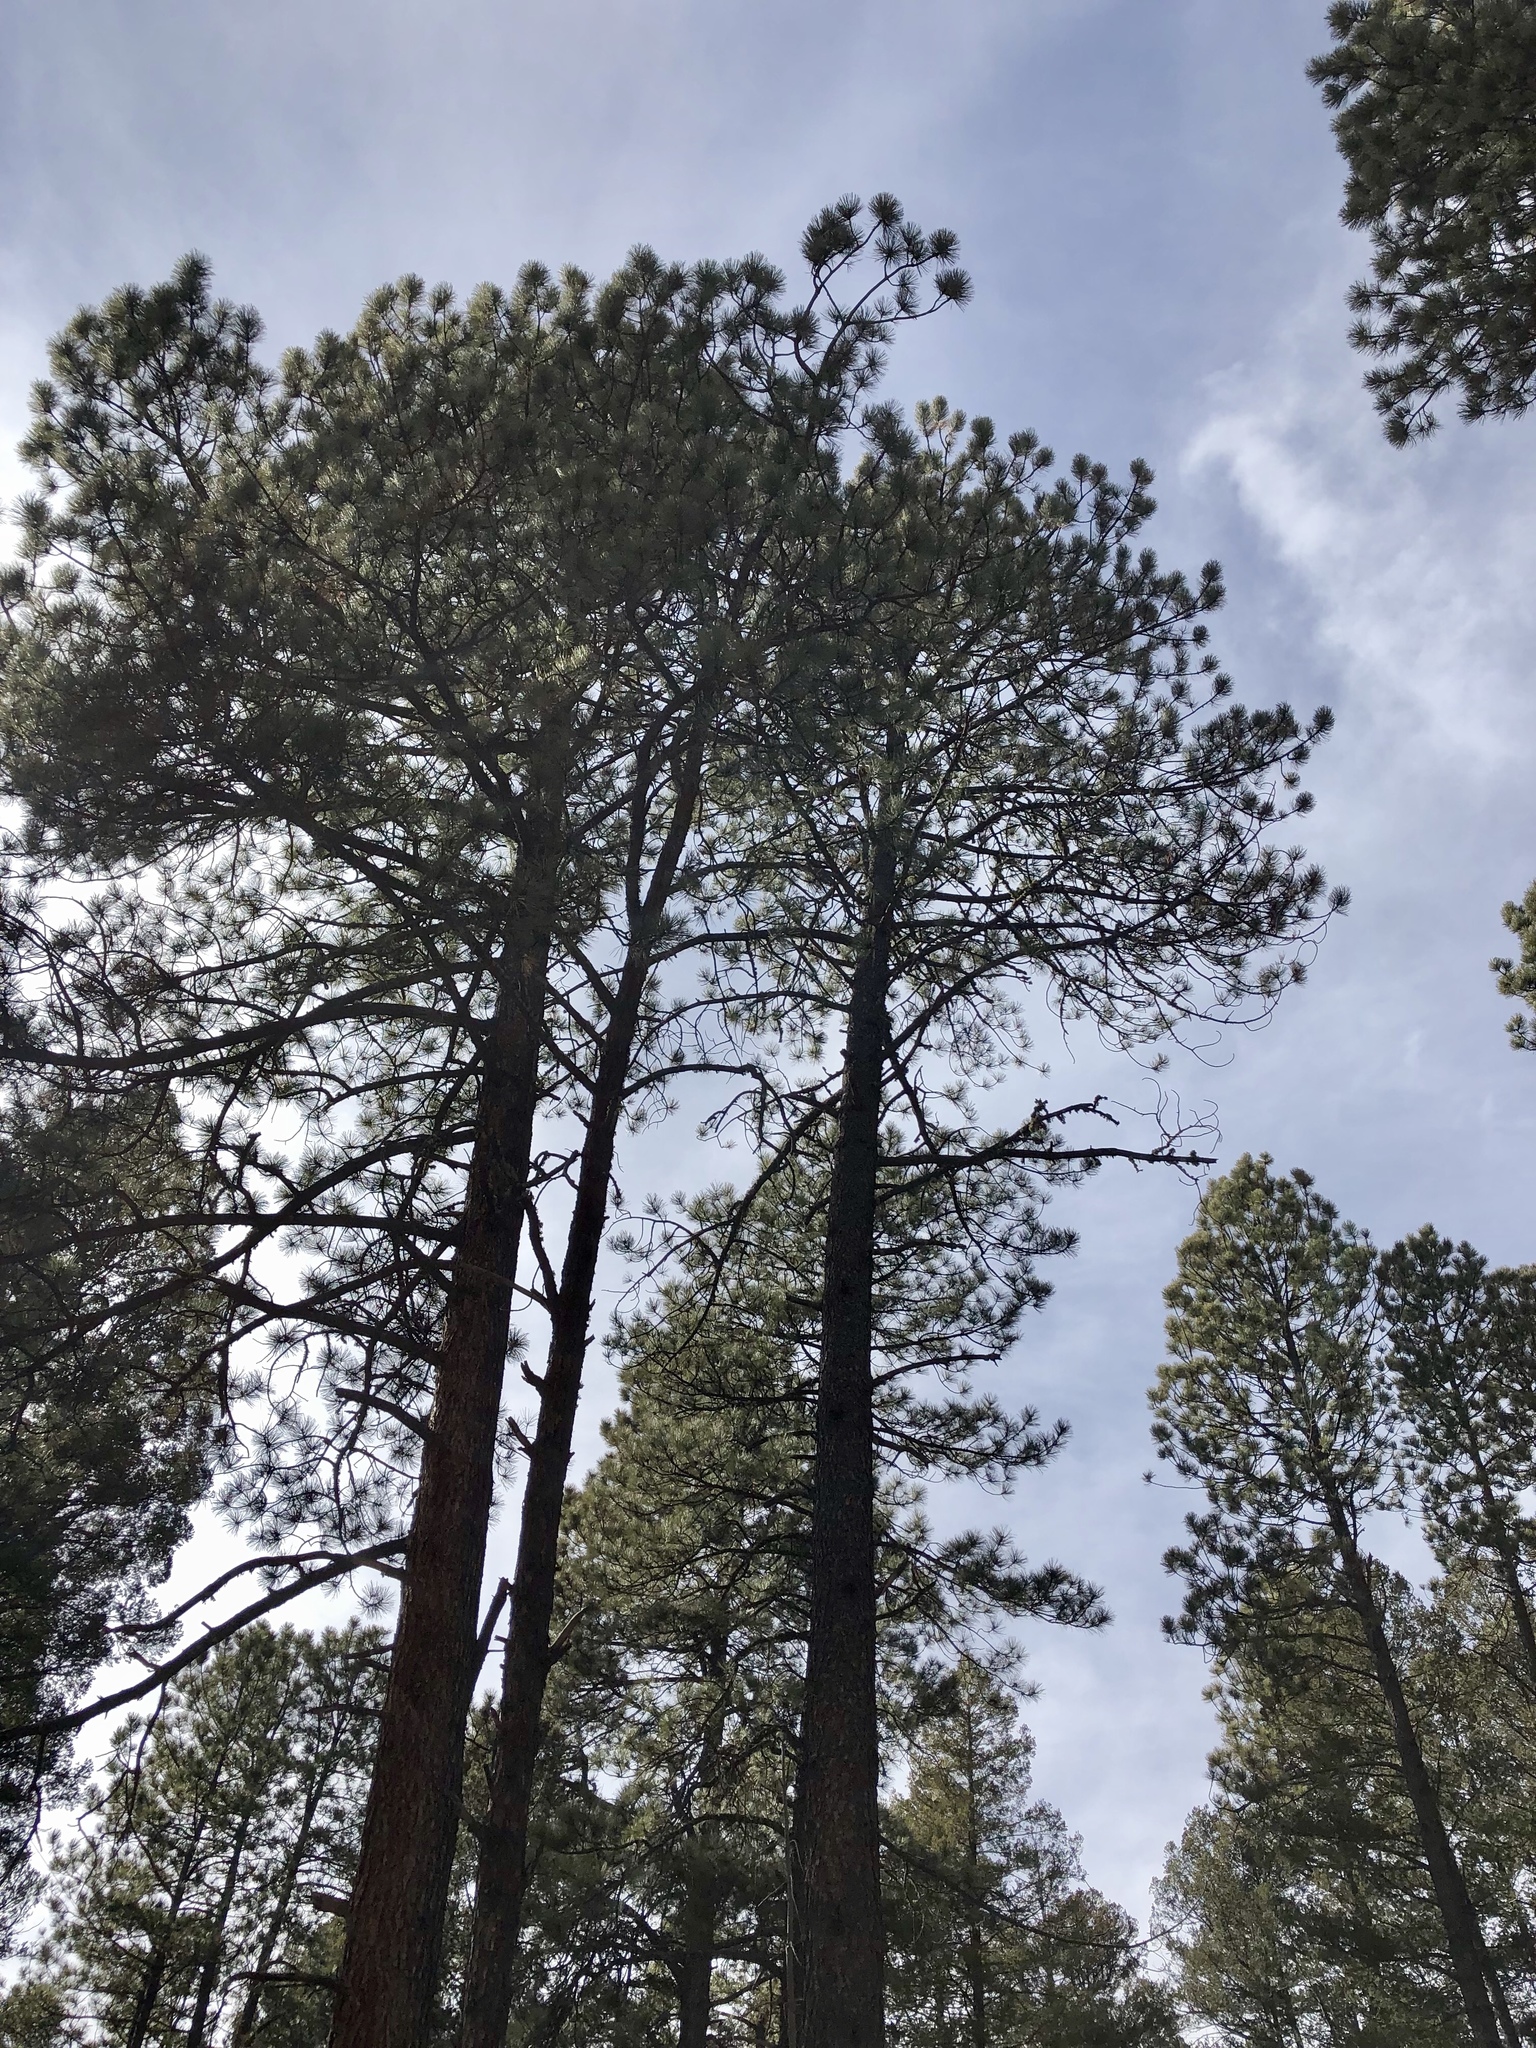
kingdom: Plantae
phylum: Tracheophyta
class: Pinopsida
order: Pinales
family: Pinaceae
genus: Pinus
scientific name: Pinus ponderosa
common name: Western yellow-pine
